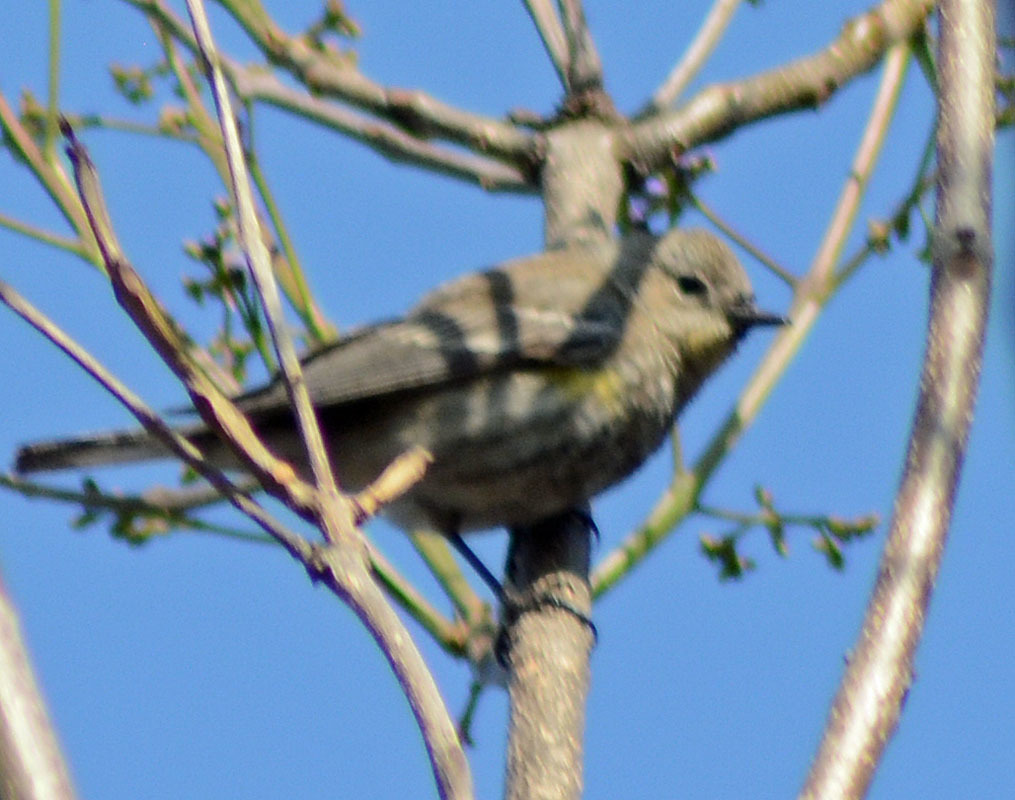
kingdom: Animalia
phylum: Chordata
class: Aves
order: Passeriformes
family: Parulidae
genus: Setophaga
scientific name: Setophaga coronata
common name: Myrtle warbler
